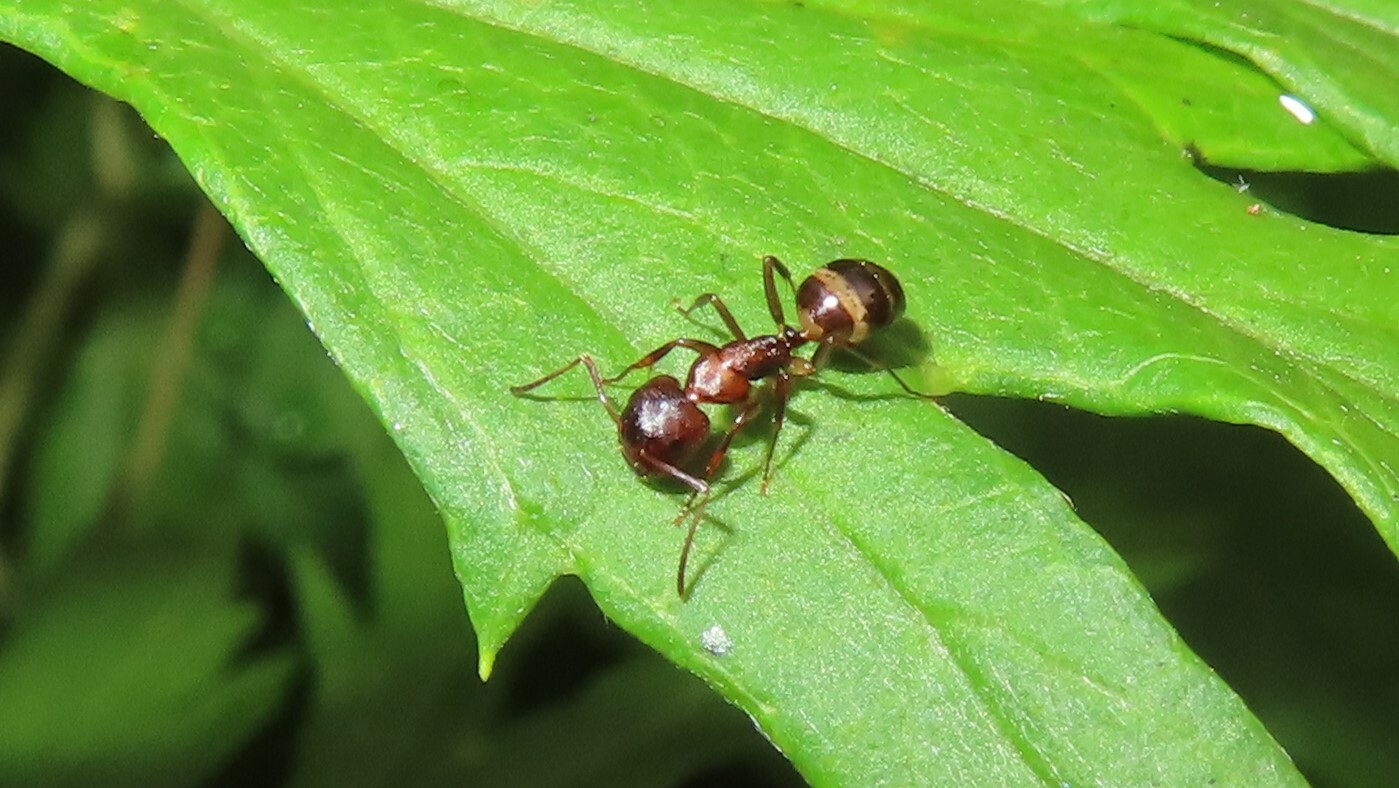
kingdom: Animalia
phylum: Arthropoda
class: Insecta
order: Hymenoptera
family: Formicidae
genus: Camponotus
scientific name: Camponotus subbarbatus
